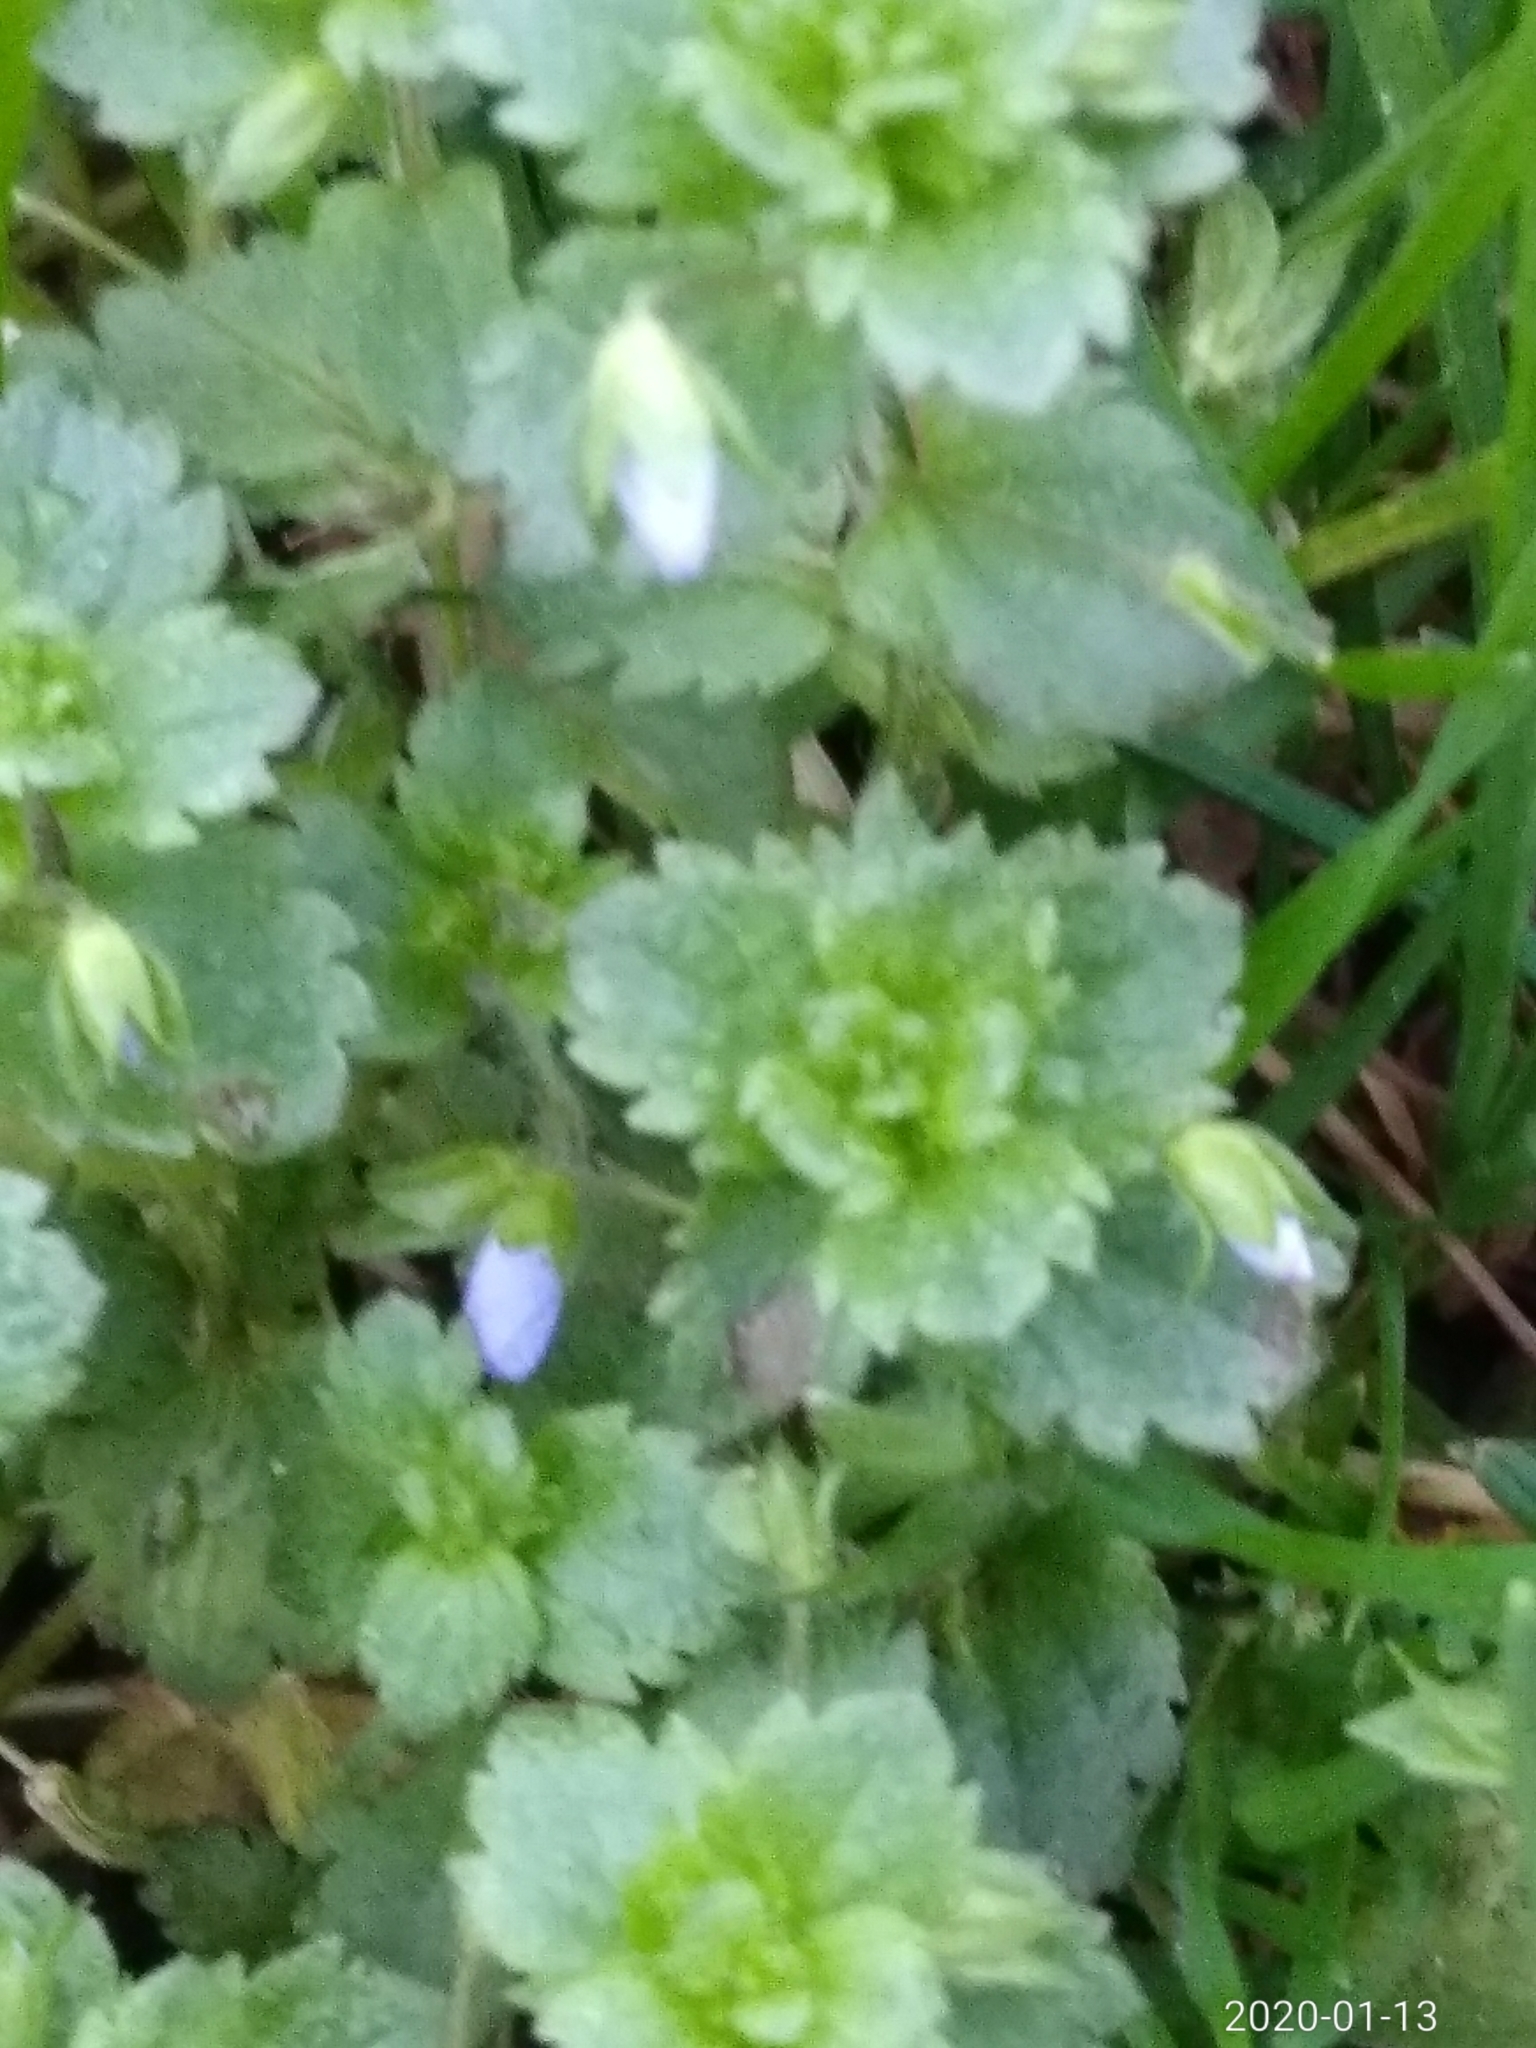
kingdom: Plantae
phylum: Tracheophyta
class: Magnoliopsida
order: Lamiales
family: Plantaginaceae
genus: Veronica
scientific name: Veronica persica
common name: Common field-speedwell
